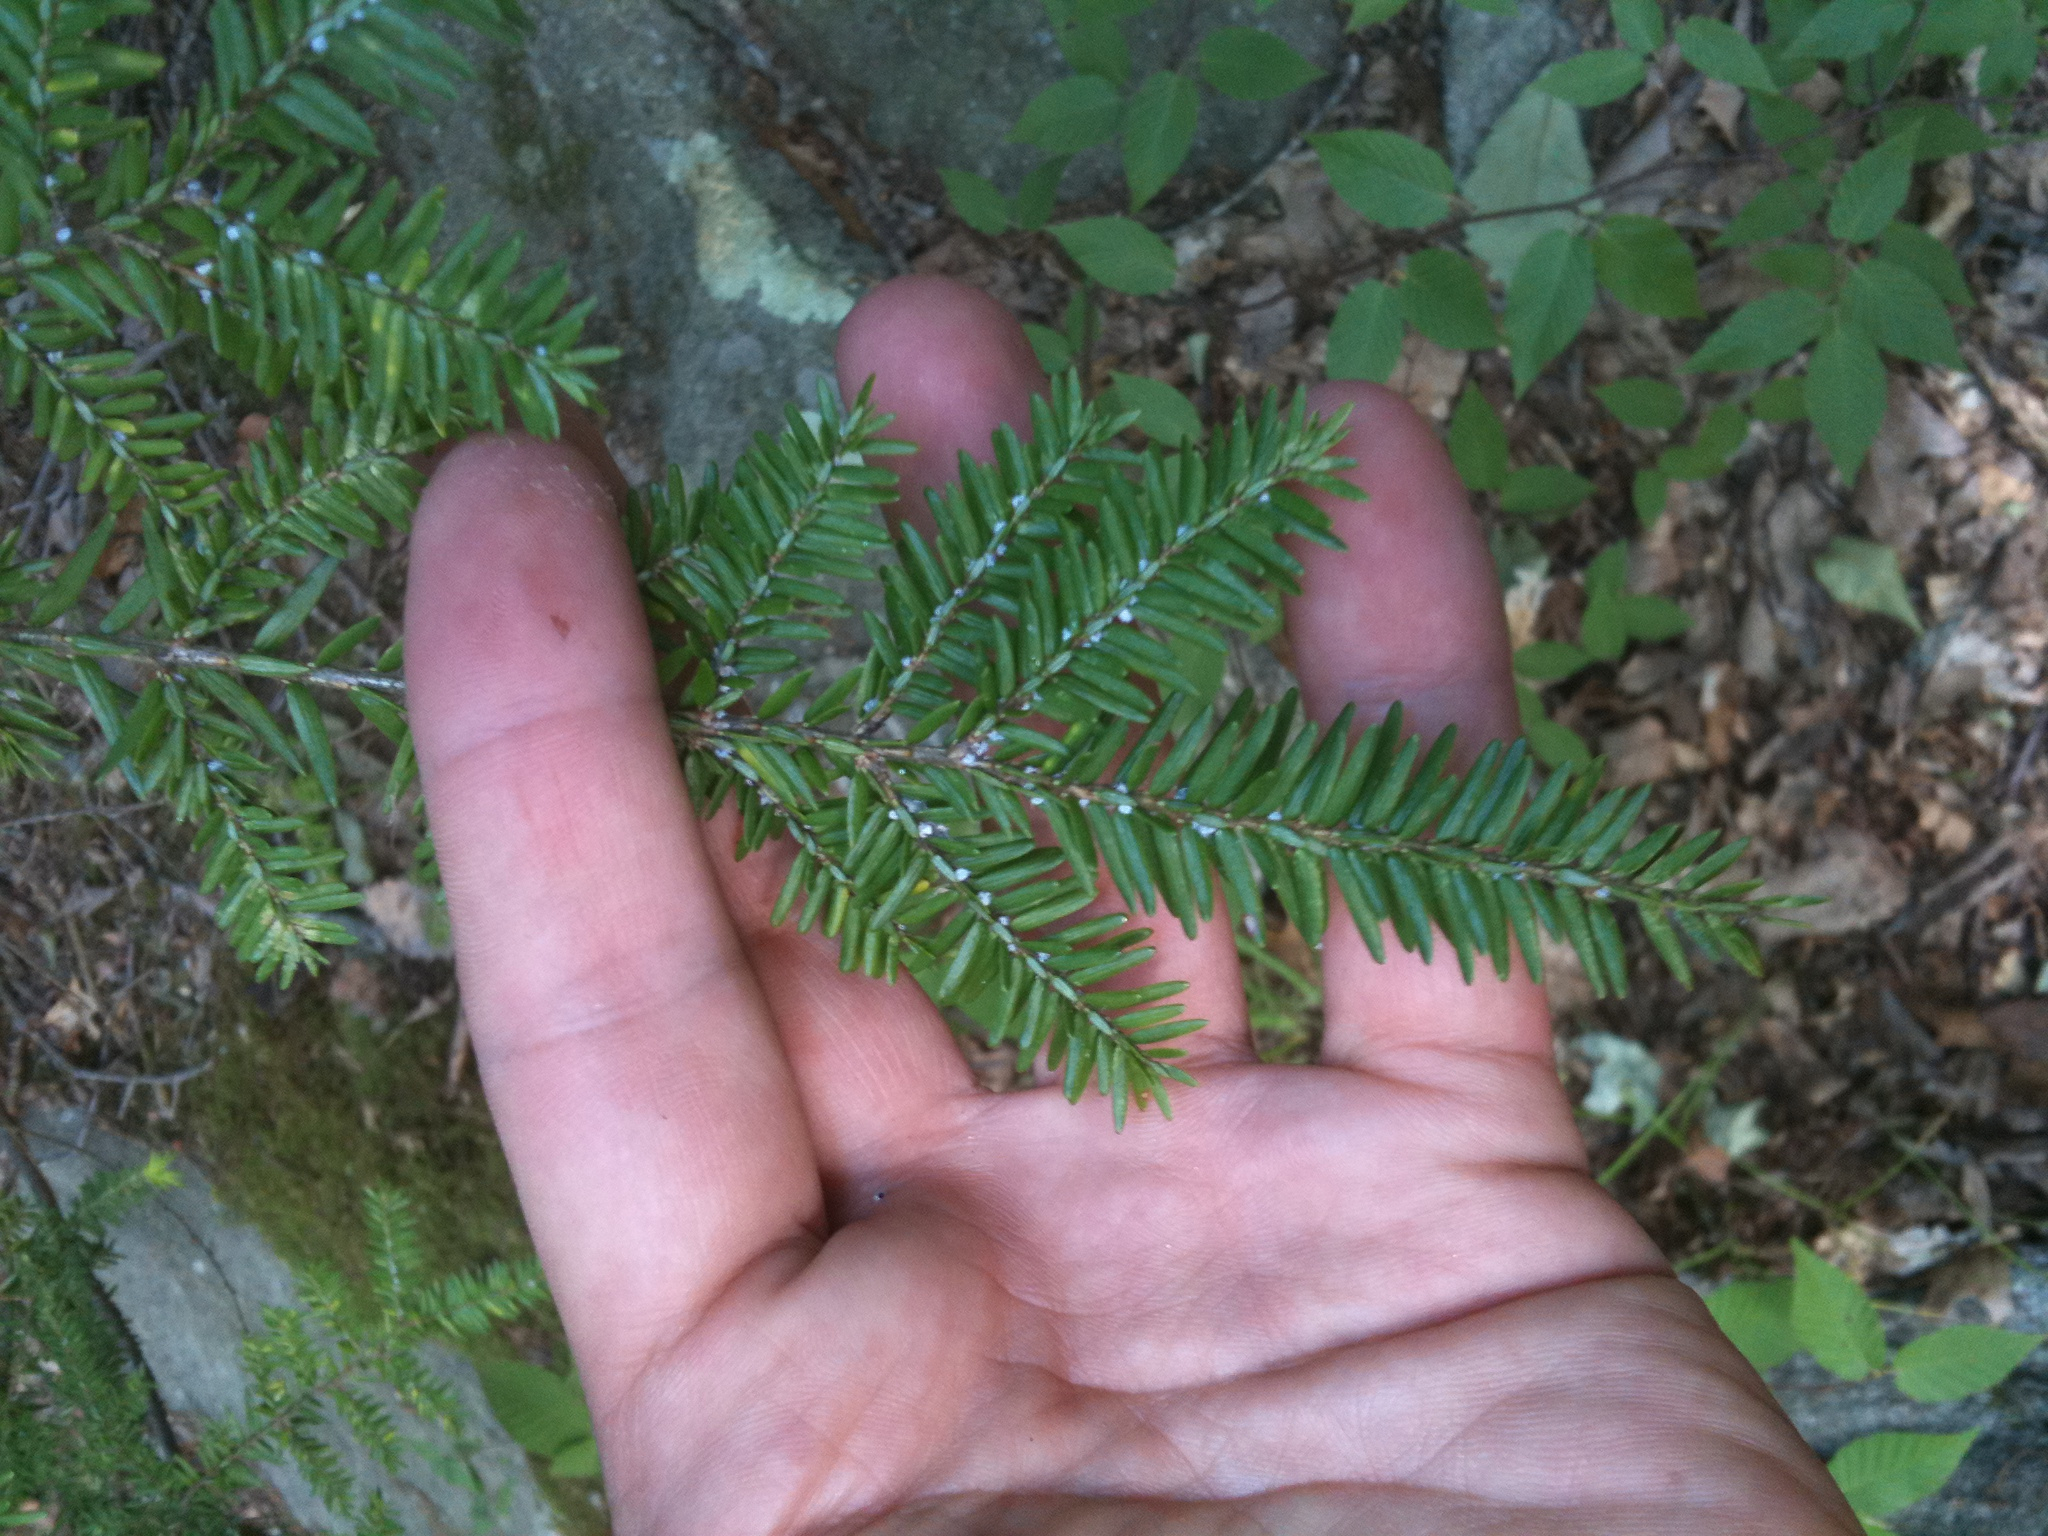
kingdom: Animalia
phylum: Arthropoda
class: Insecta
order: Hemiptera
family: Adelgidae
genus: Adelges
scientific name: Adelges tsugae
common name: Hemlock woolly adelgid
